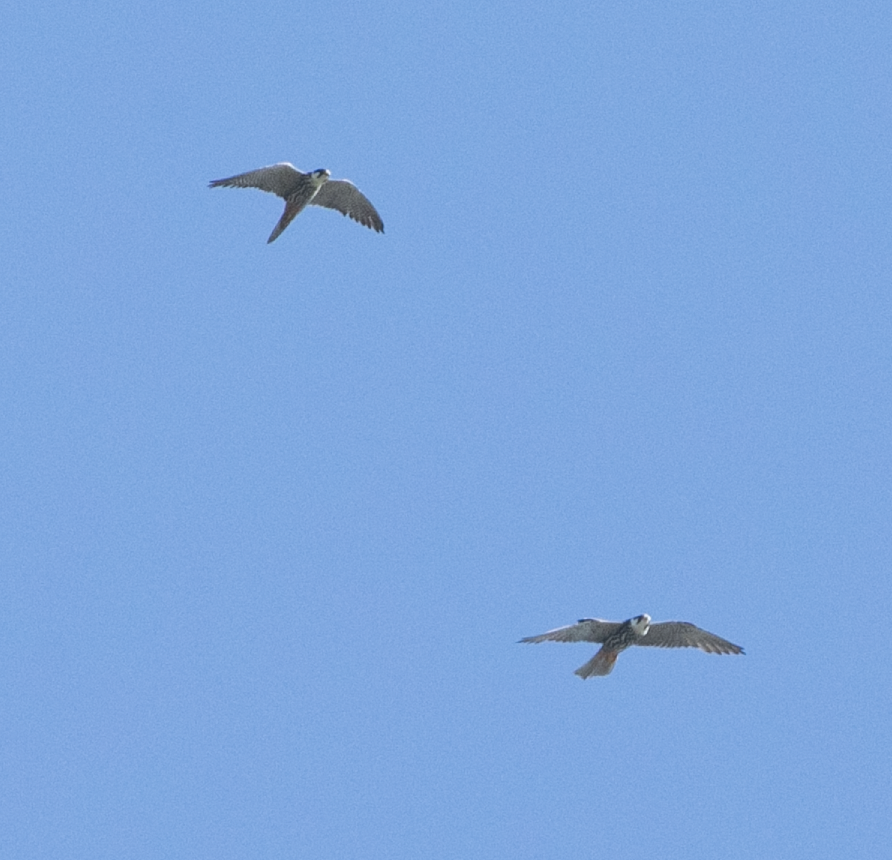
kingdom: Animalia
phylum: Chordata
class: Aves
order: Falconiformes
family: Falconidae
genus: Falco
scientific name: Falco subbuteo
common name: Eurasian hobby
